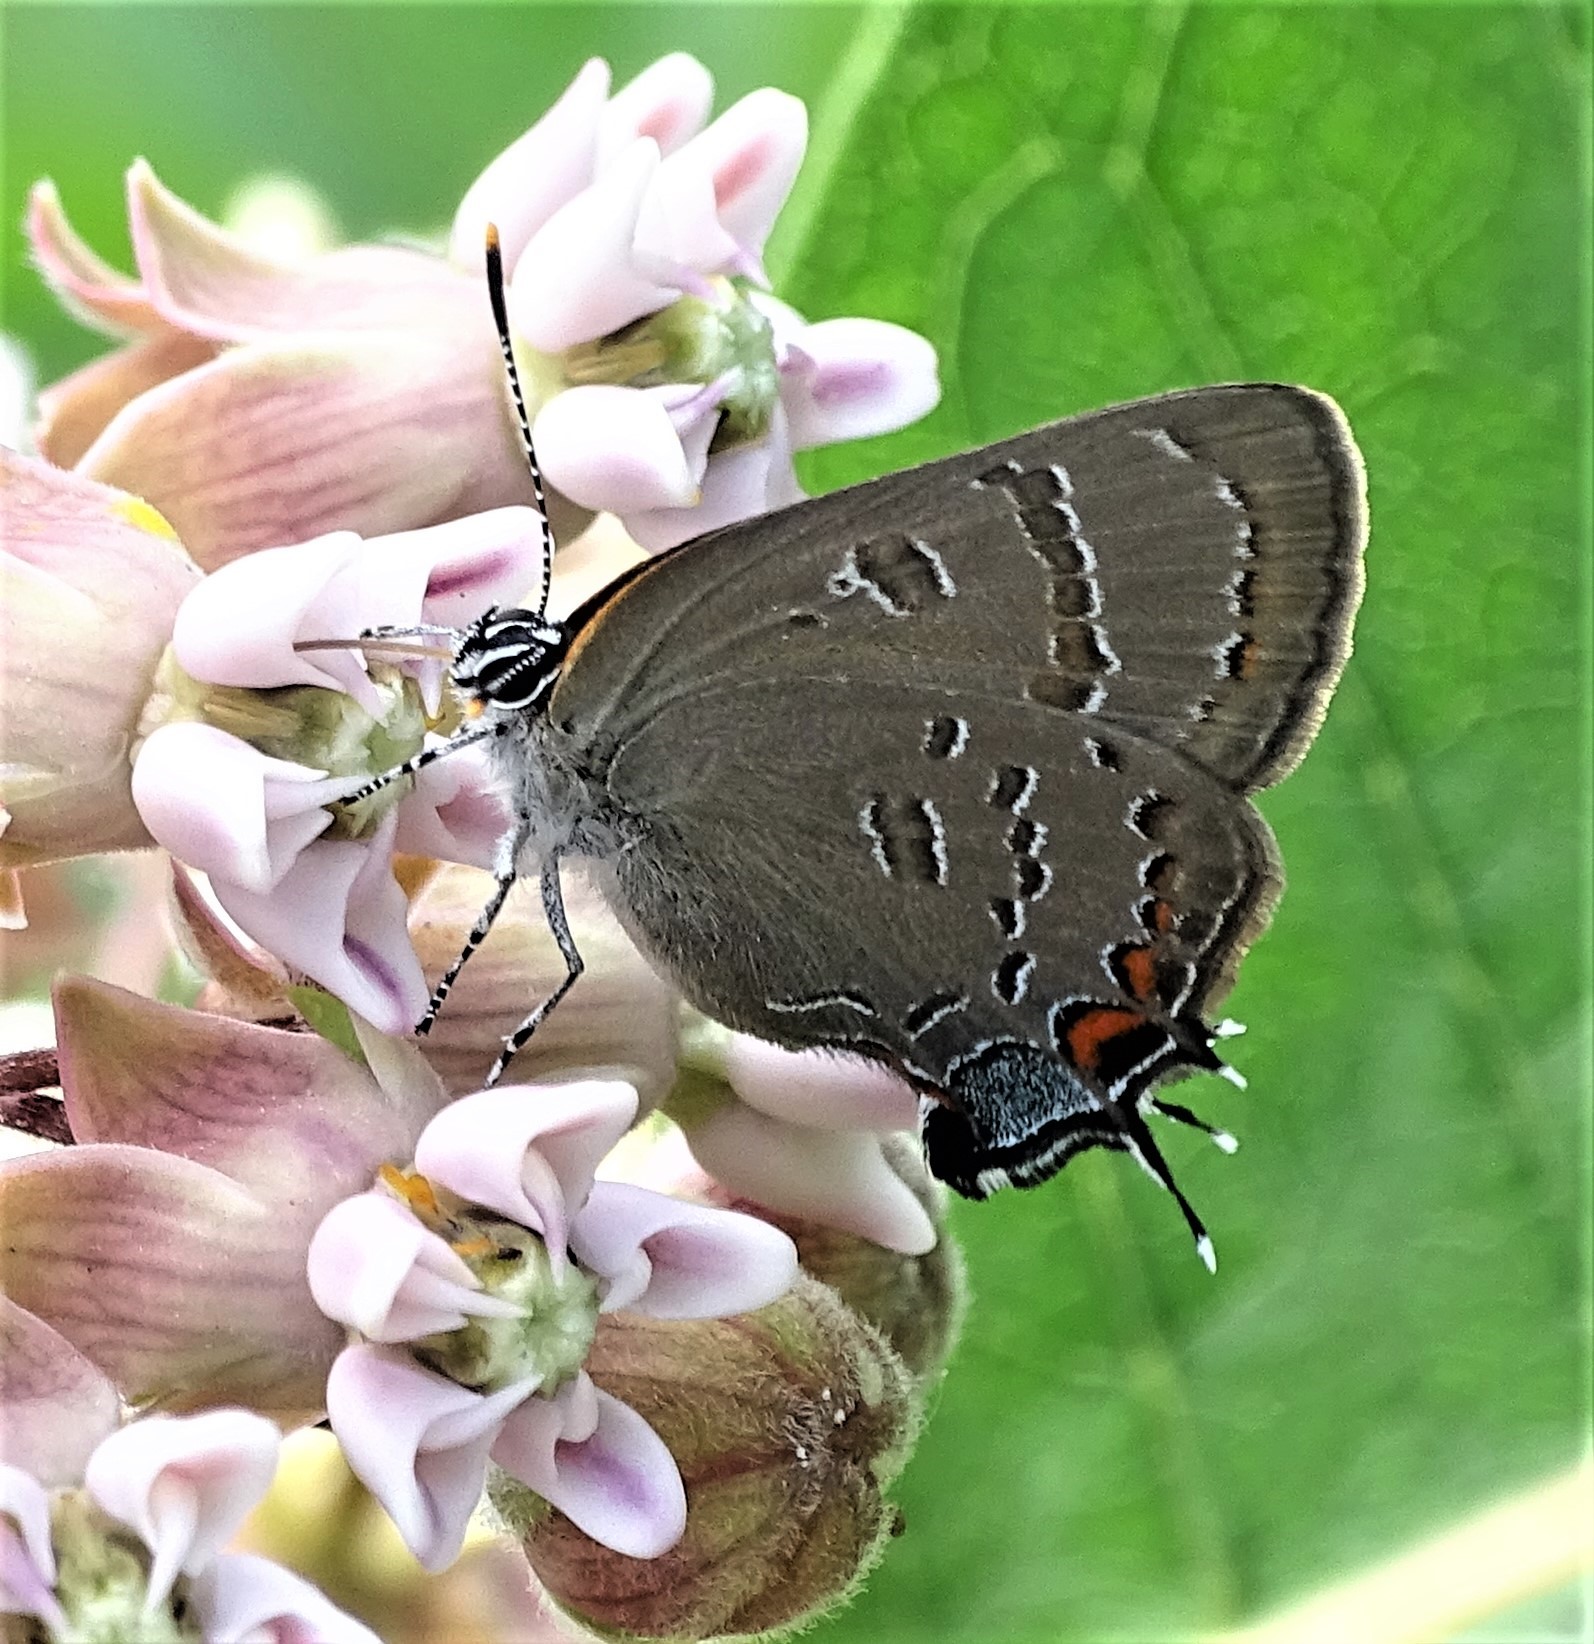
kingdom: Animalia
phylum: Arthropoda
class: Insecta
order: Lepidoptera
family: Lycaenidae
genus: Satyrium
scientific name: Satyrium calanus
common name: Banded hairstreak
